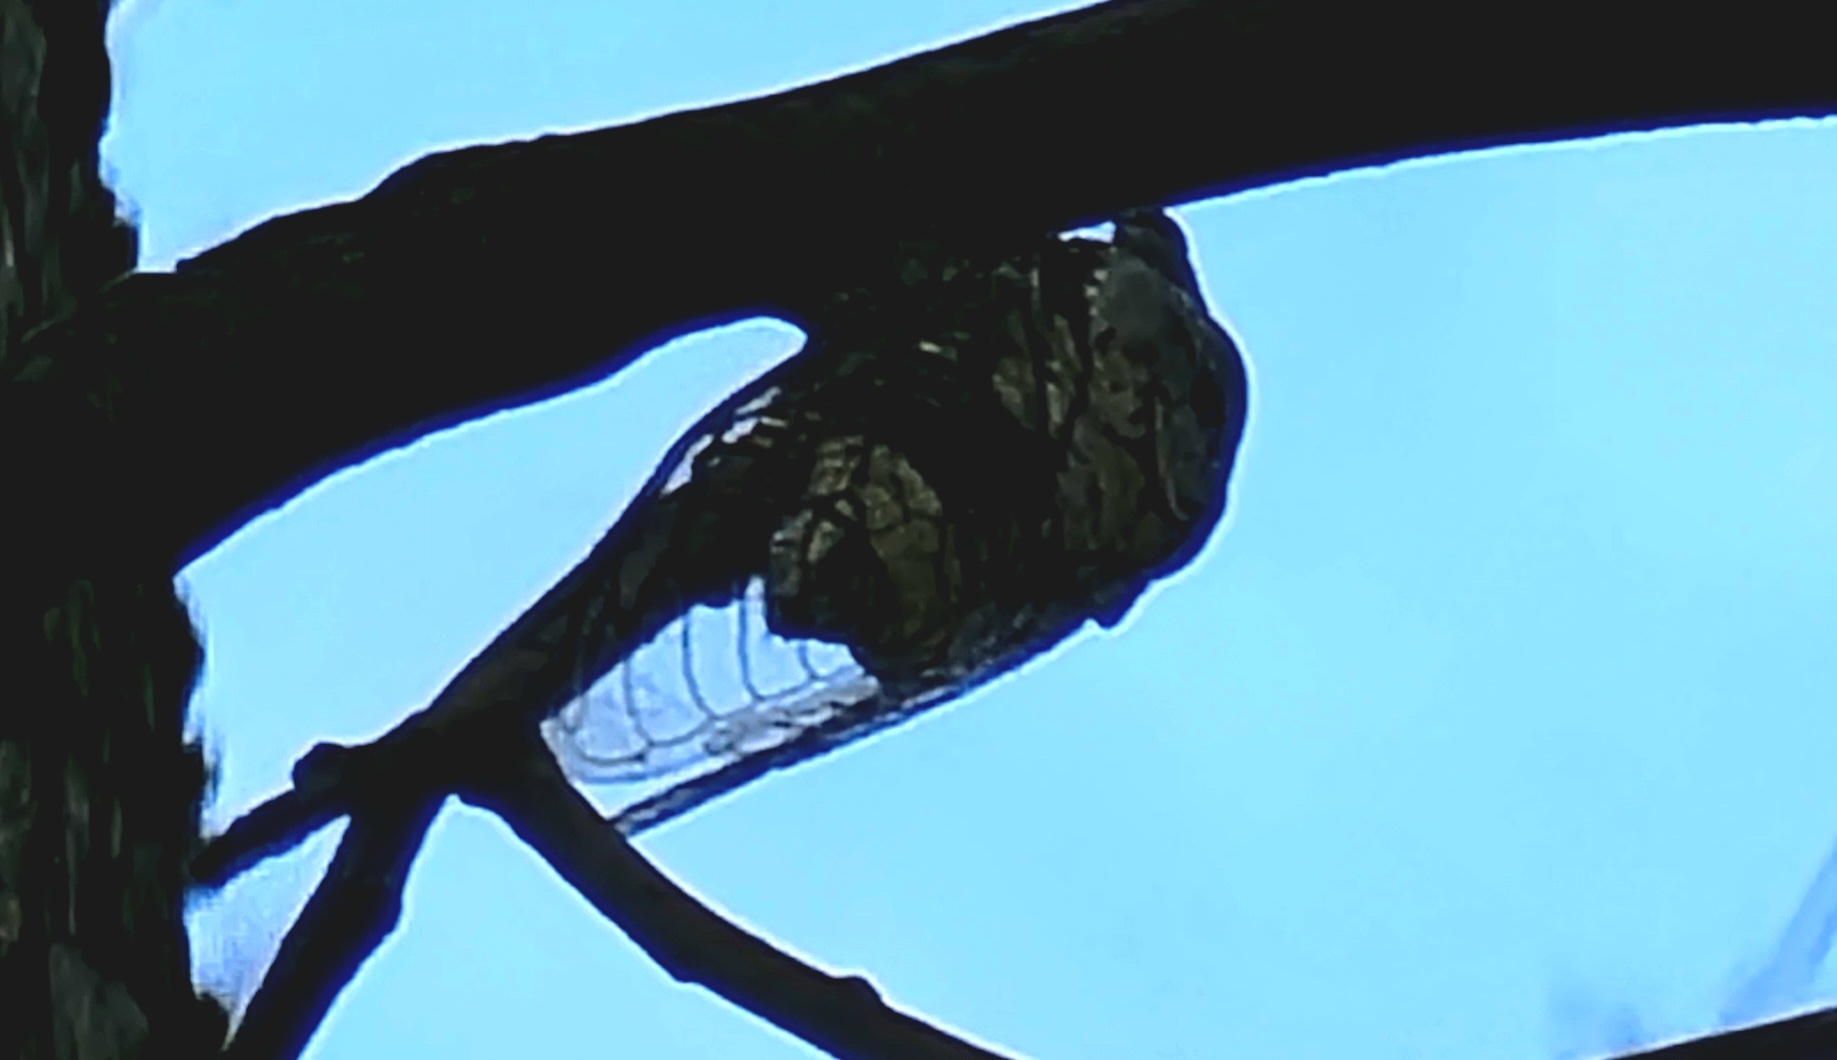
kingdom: Animalia
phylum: Arthropoda
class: Insecta
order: Hemiptera
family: Cicadidae
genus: Diceroprocta
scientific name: Diceroprocta grossa
